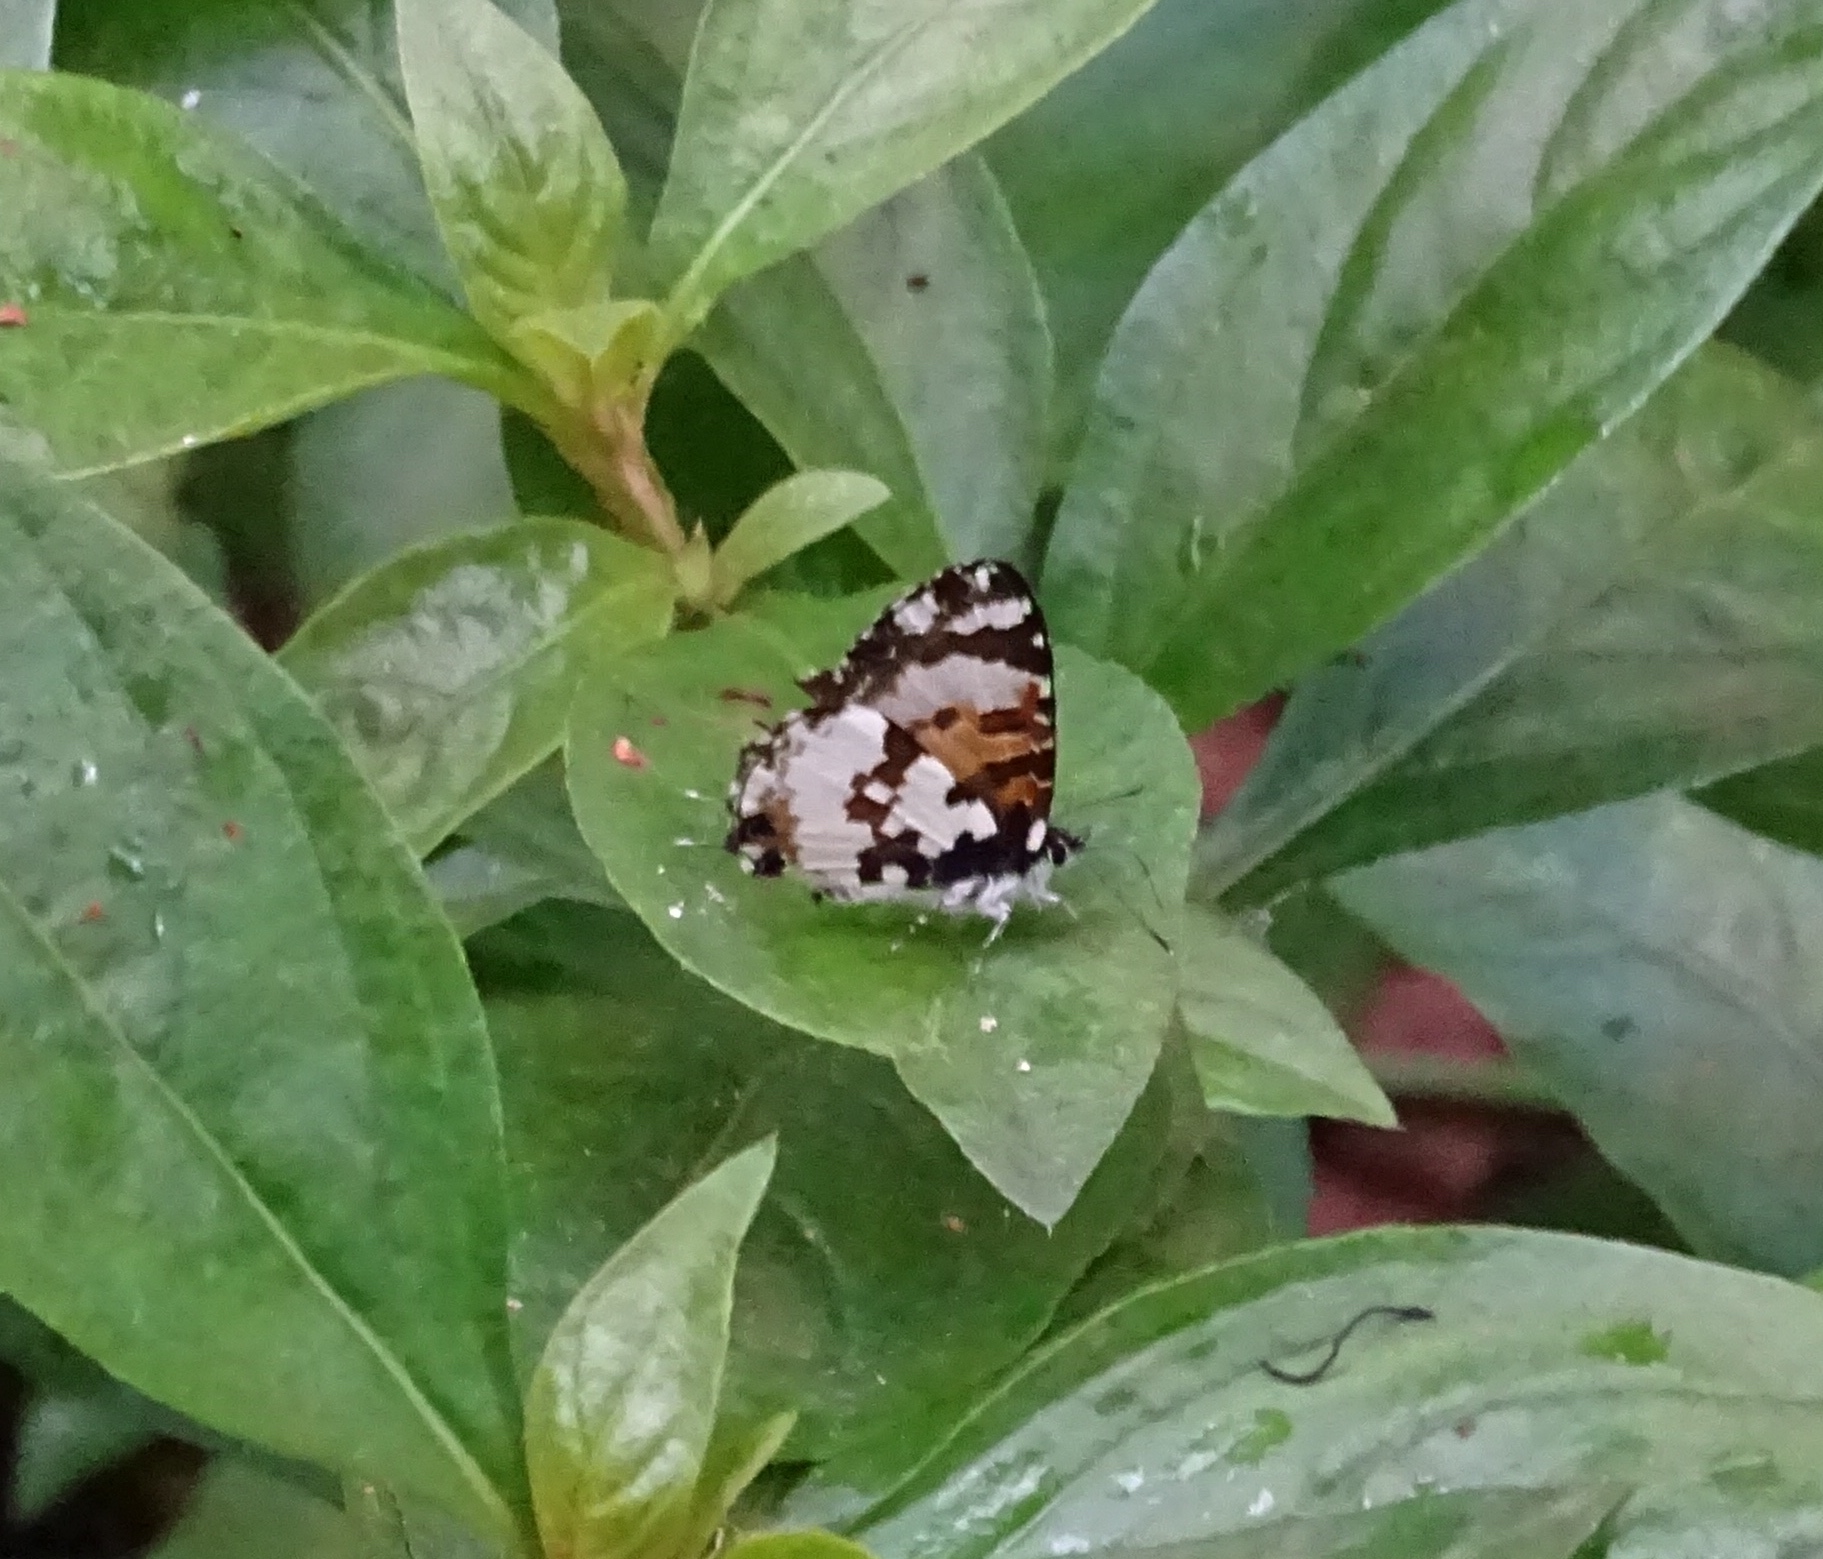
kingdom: Animalia
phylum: Arthropoda
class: Insecta
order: Lepidoptera
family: Lycaenidae
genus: Uranothauma
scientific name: Uranothauma falkensteini
